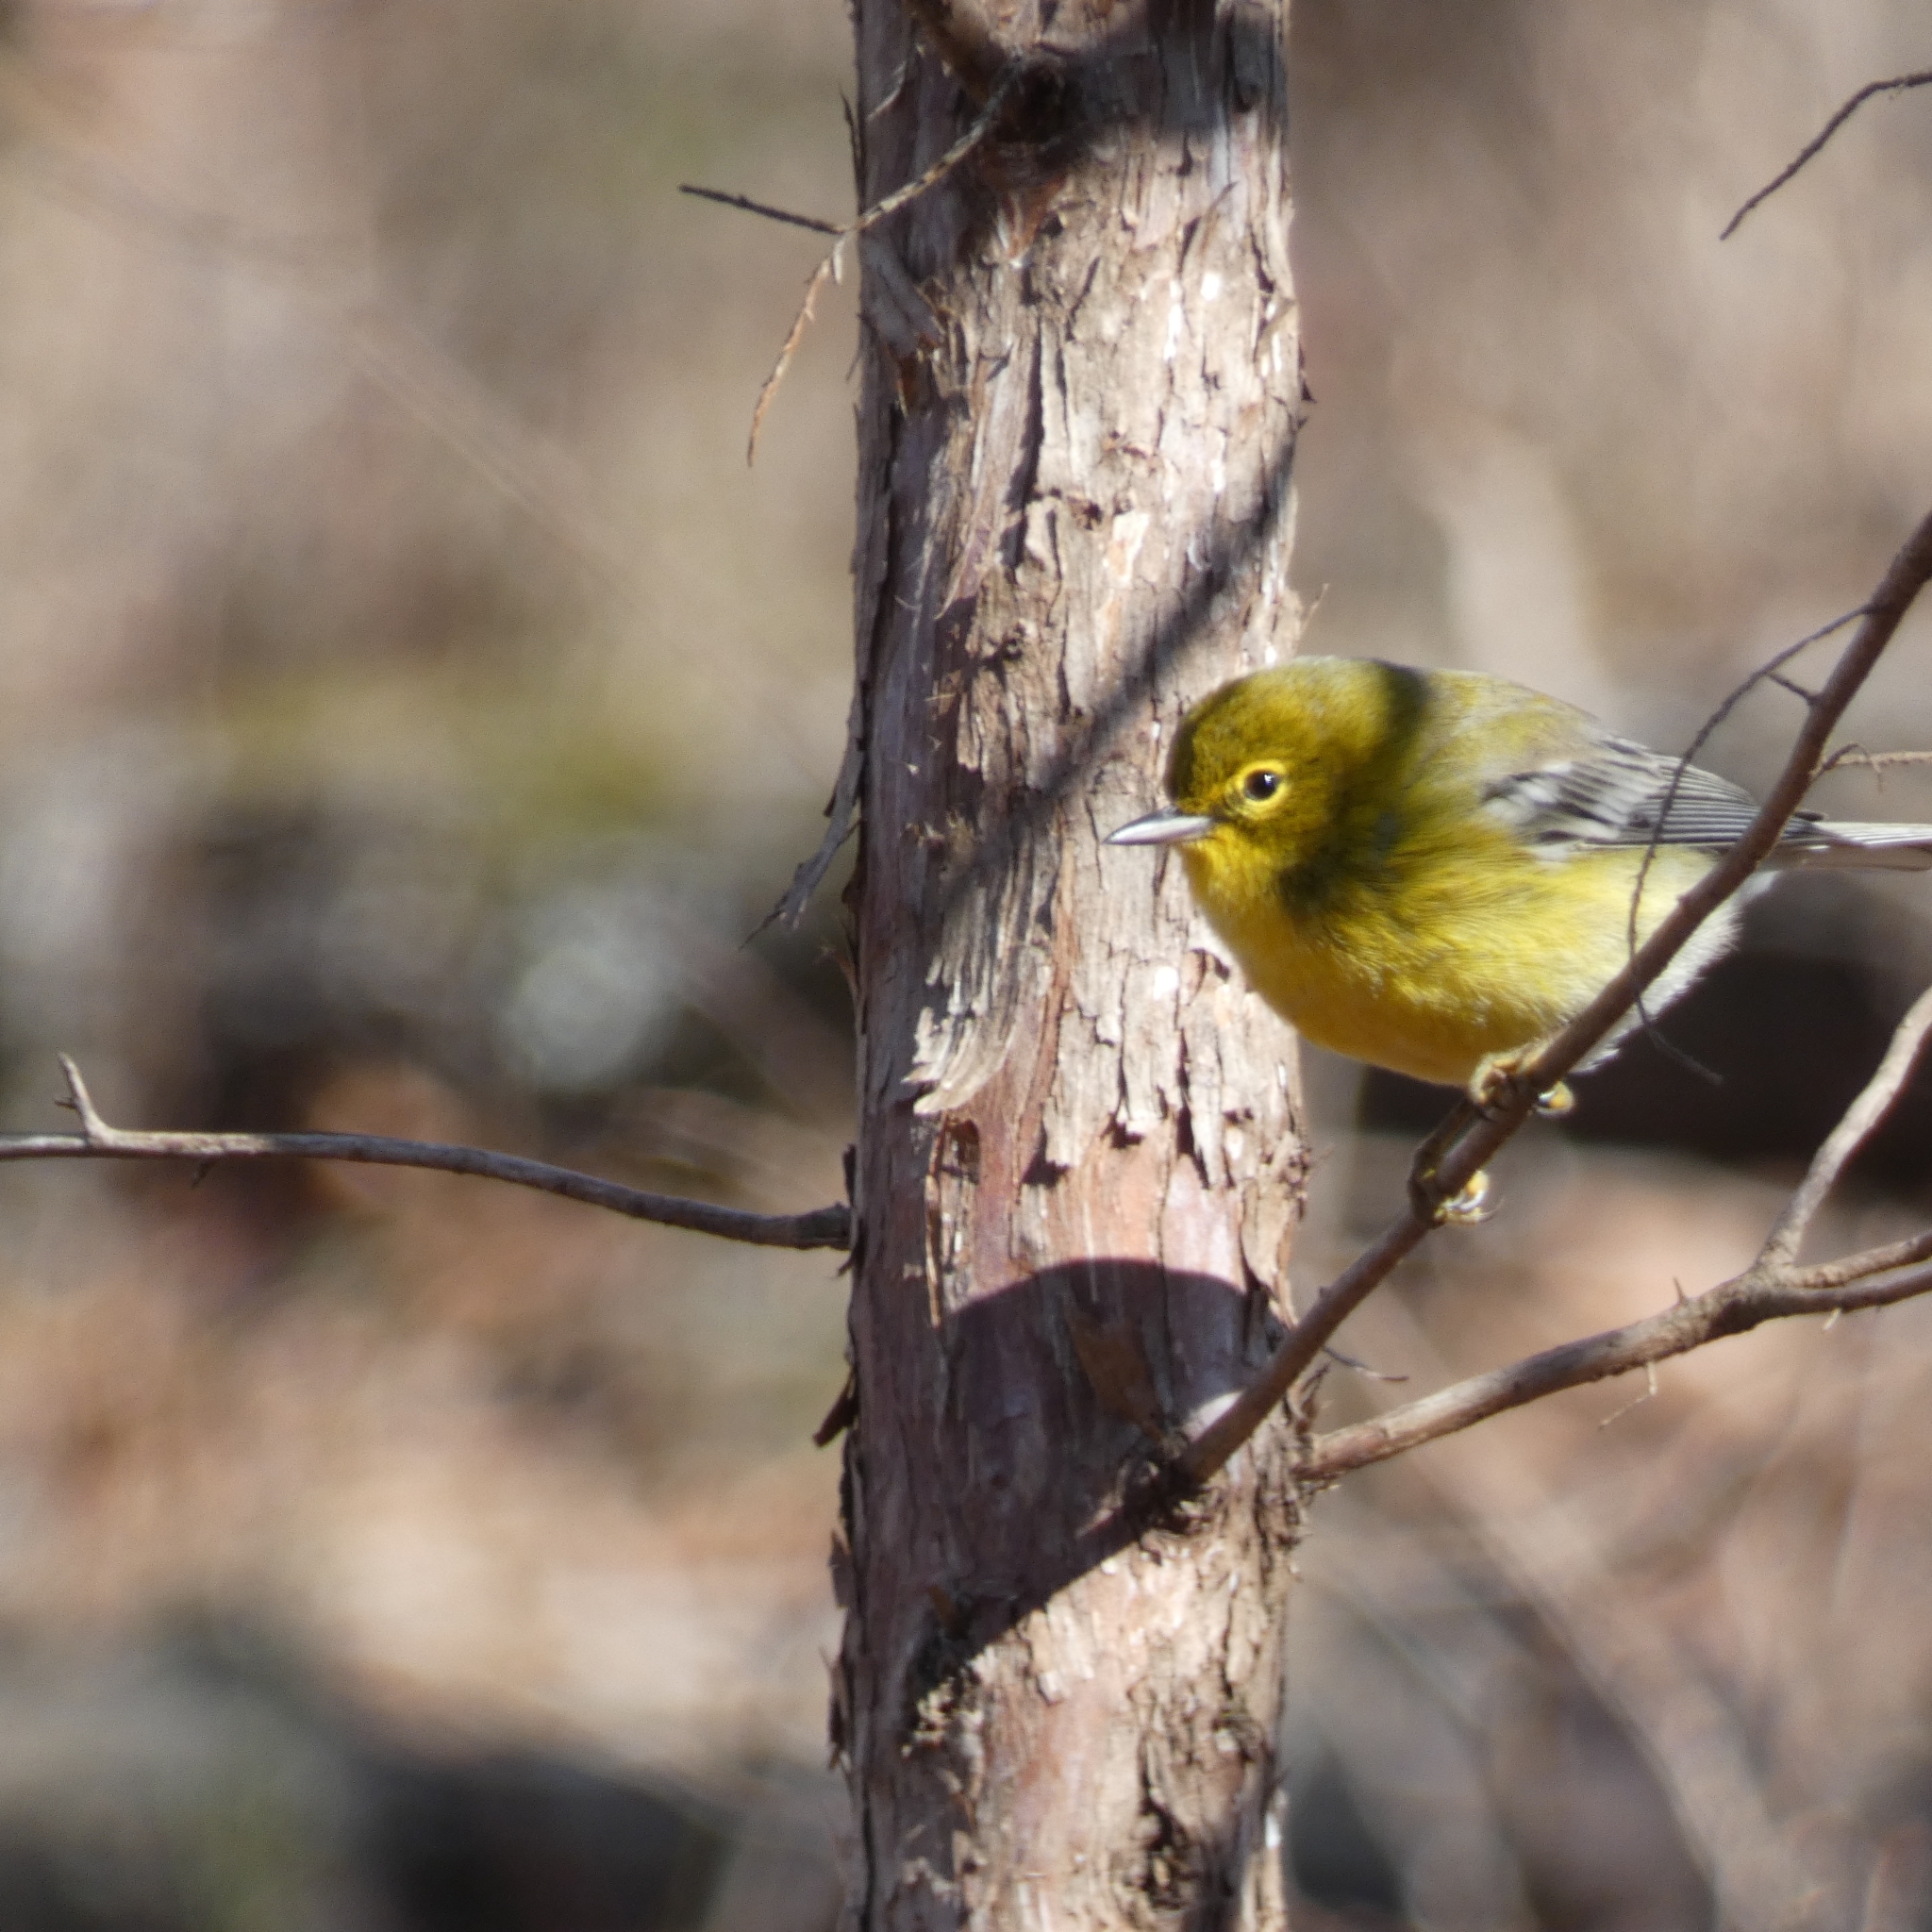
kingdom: Animalia
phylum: Chordata
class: Aves
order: Passeriformes
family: Parulidae
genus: Setophaga
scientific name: Setophaga pinus
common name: Pine warbler
